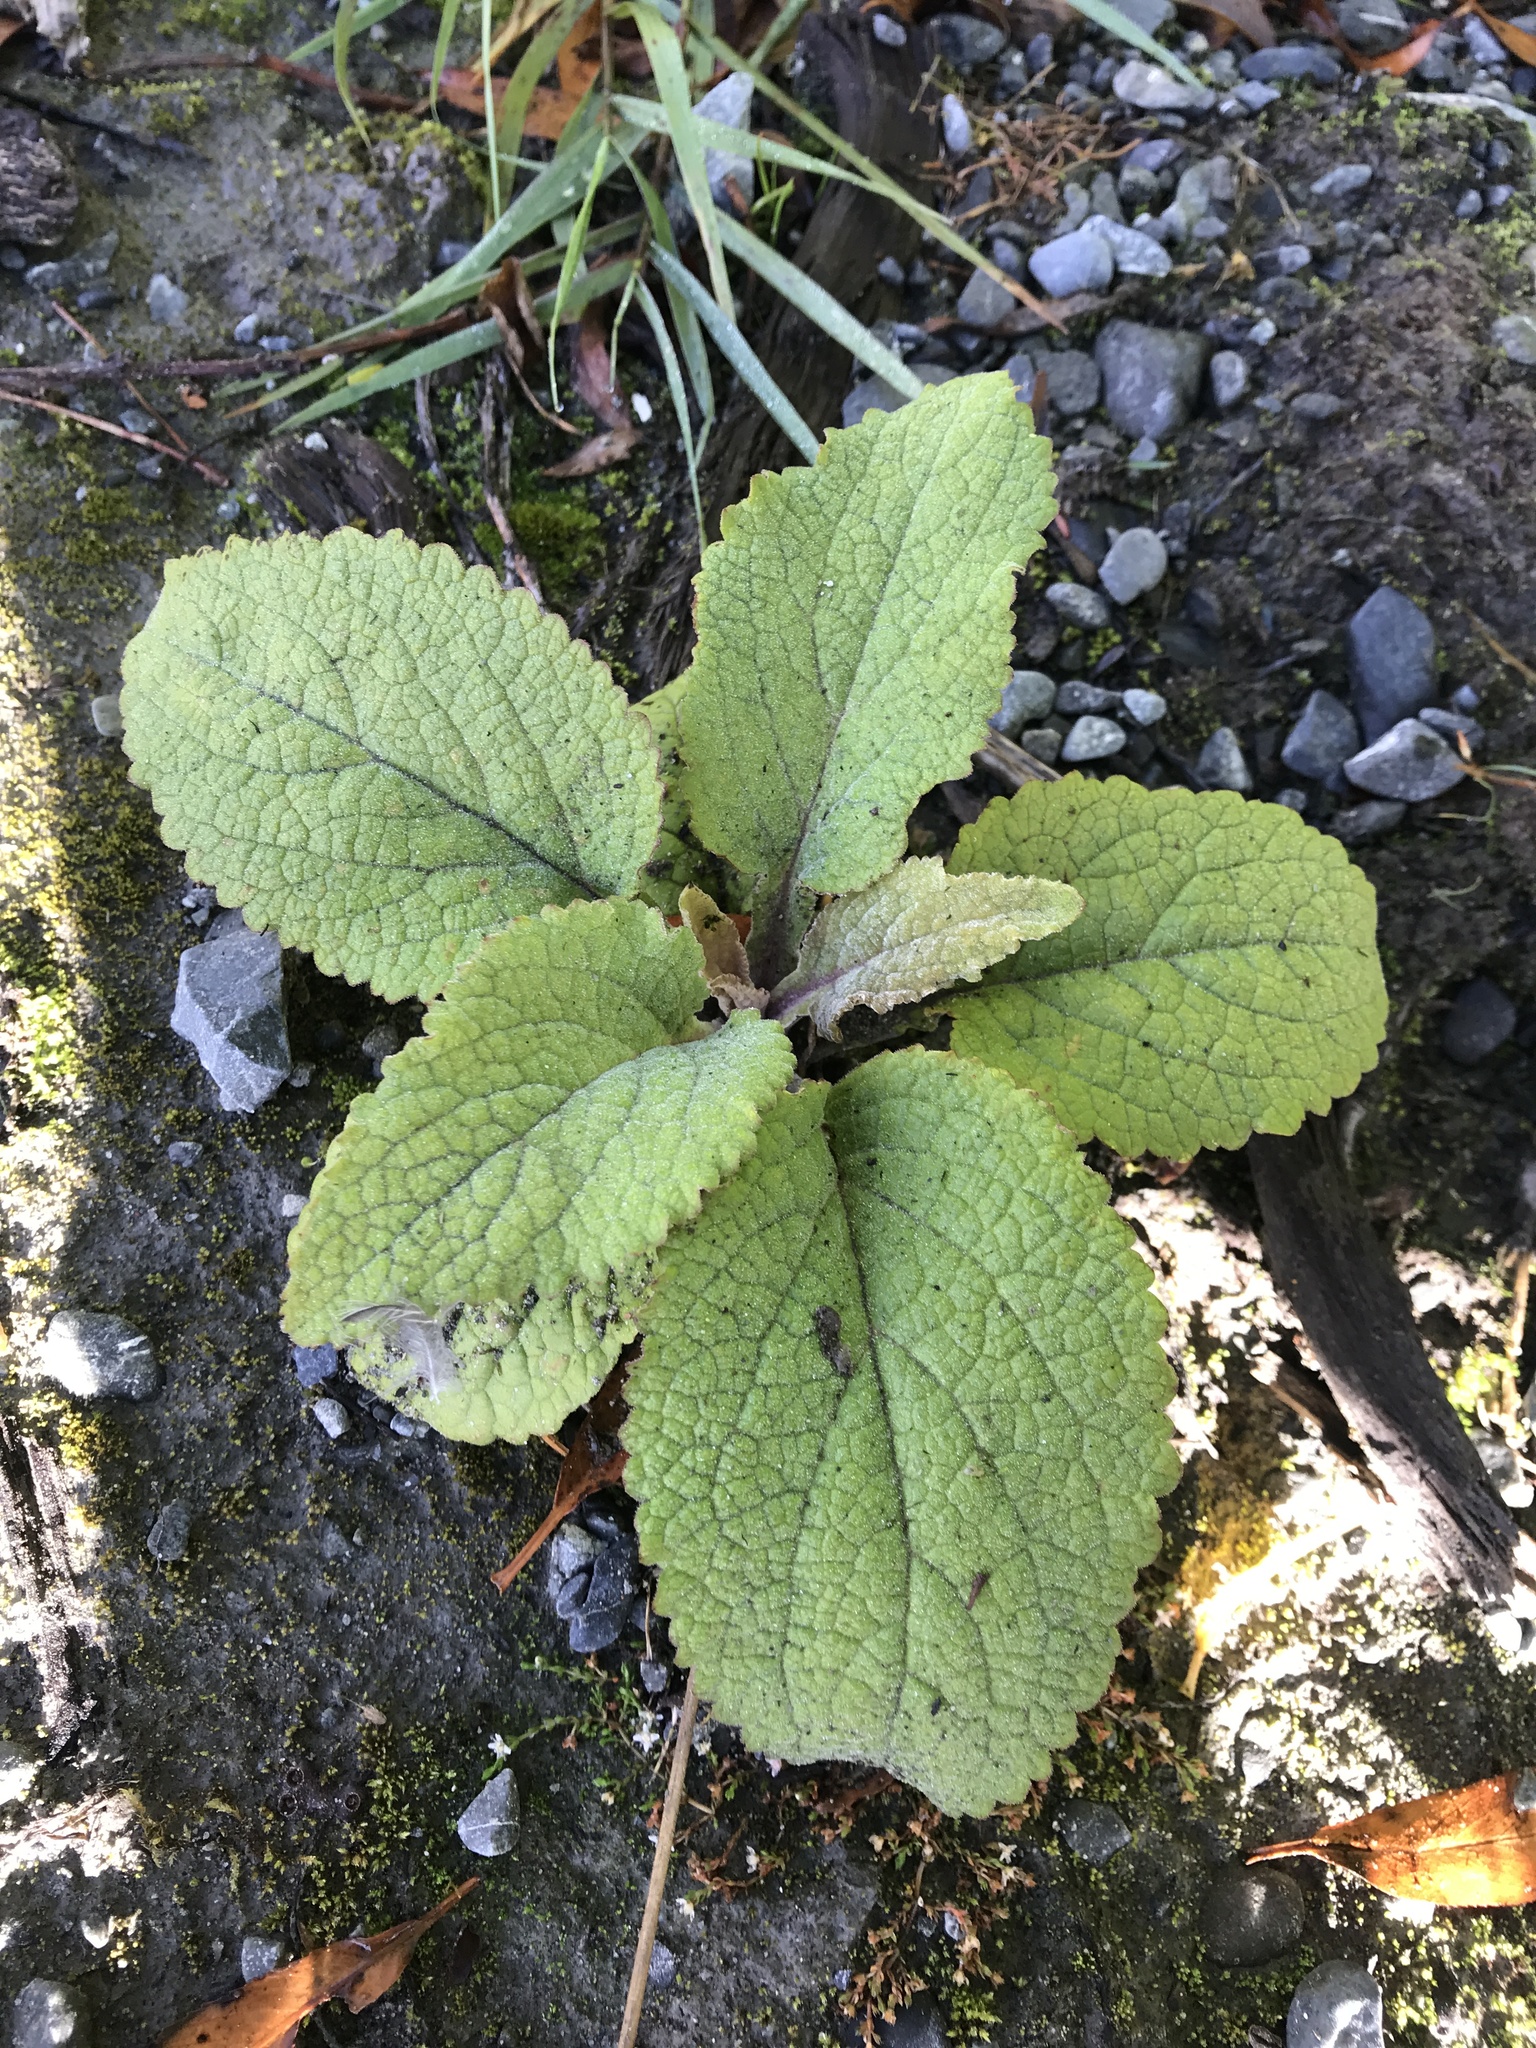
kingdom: Plantae
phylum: Tracheophyta
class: Magnoliopsida
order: Lamiales
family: Plantaginaceae
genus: Digitalis
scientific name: Digitalis purpurea
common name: Foxglove
